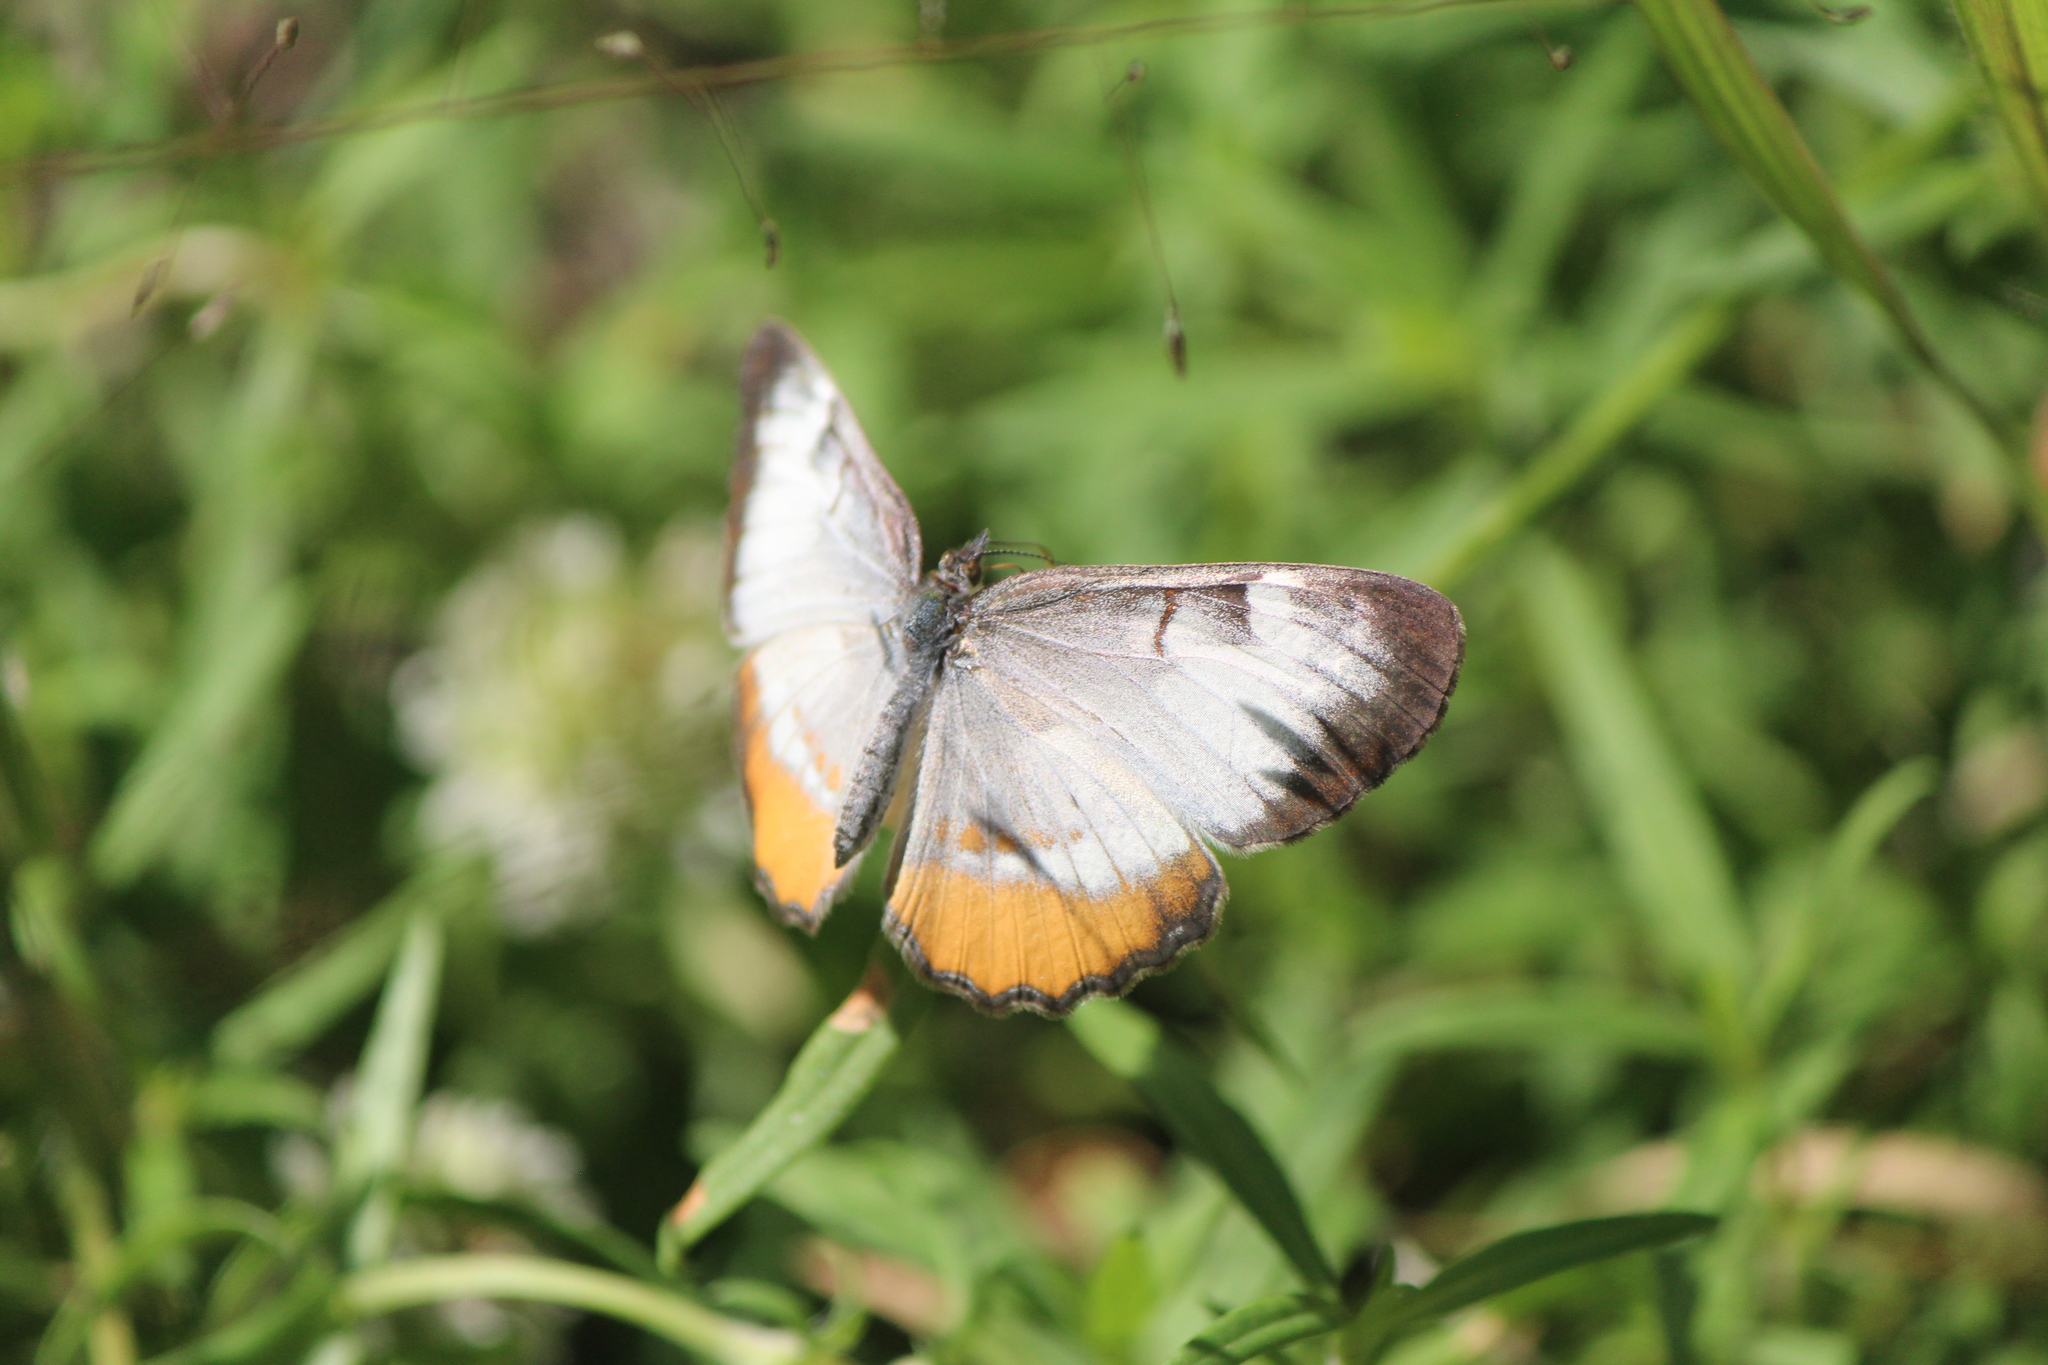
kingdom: Animalia
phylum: Arthropoda
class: Insecta
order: Lepidoptera
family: Nymphalidae
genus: Mestra
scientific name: Mestra amymone
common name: Common mestra
